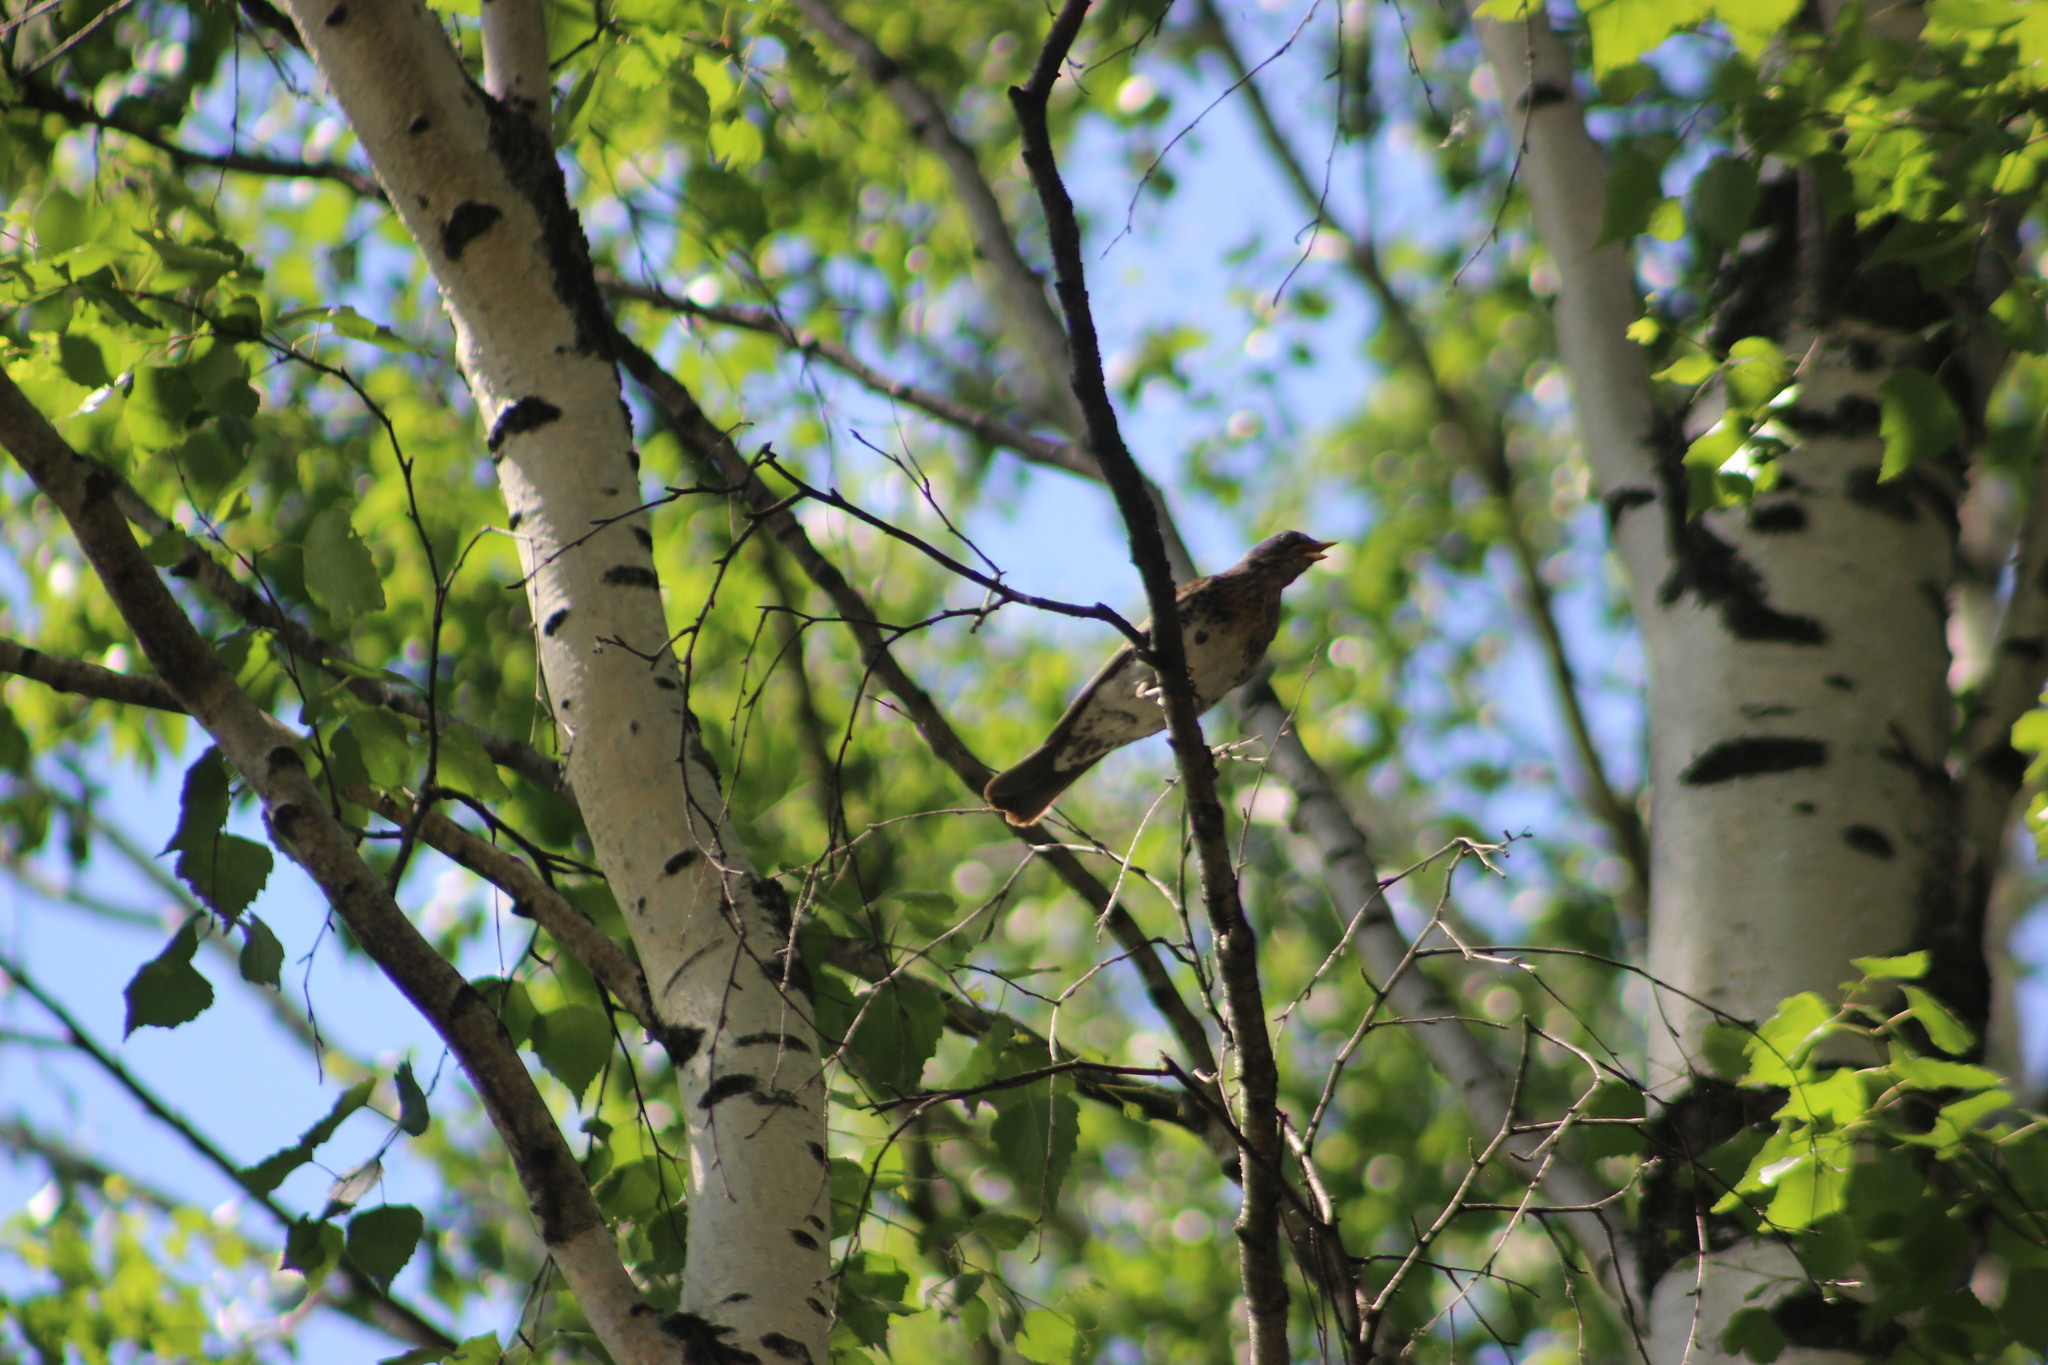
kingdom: Animalia
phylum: Chordata
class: Aves
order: Passeriformes
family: Turdidae
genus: Turdus
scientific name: Turdus pilaris
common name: Fieldfare
